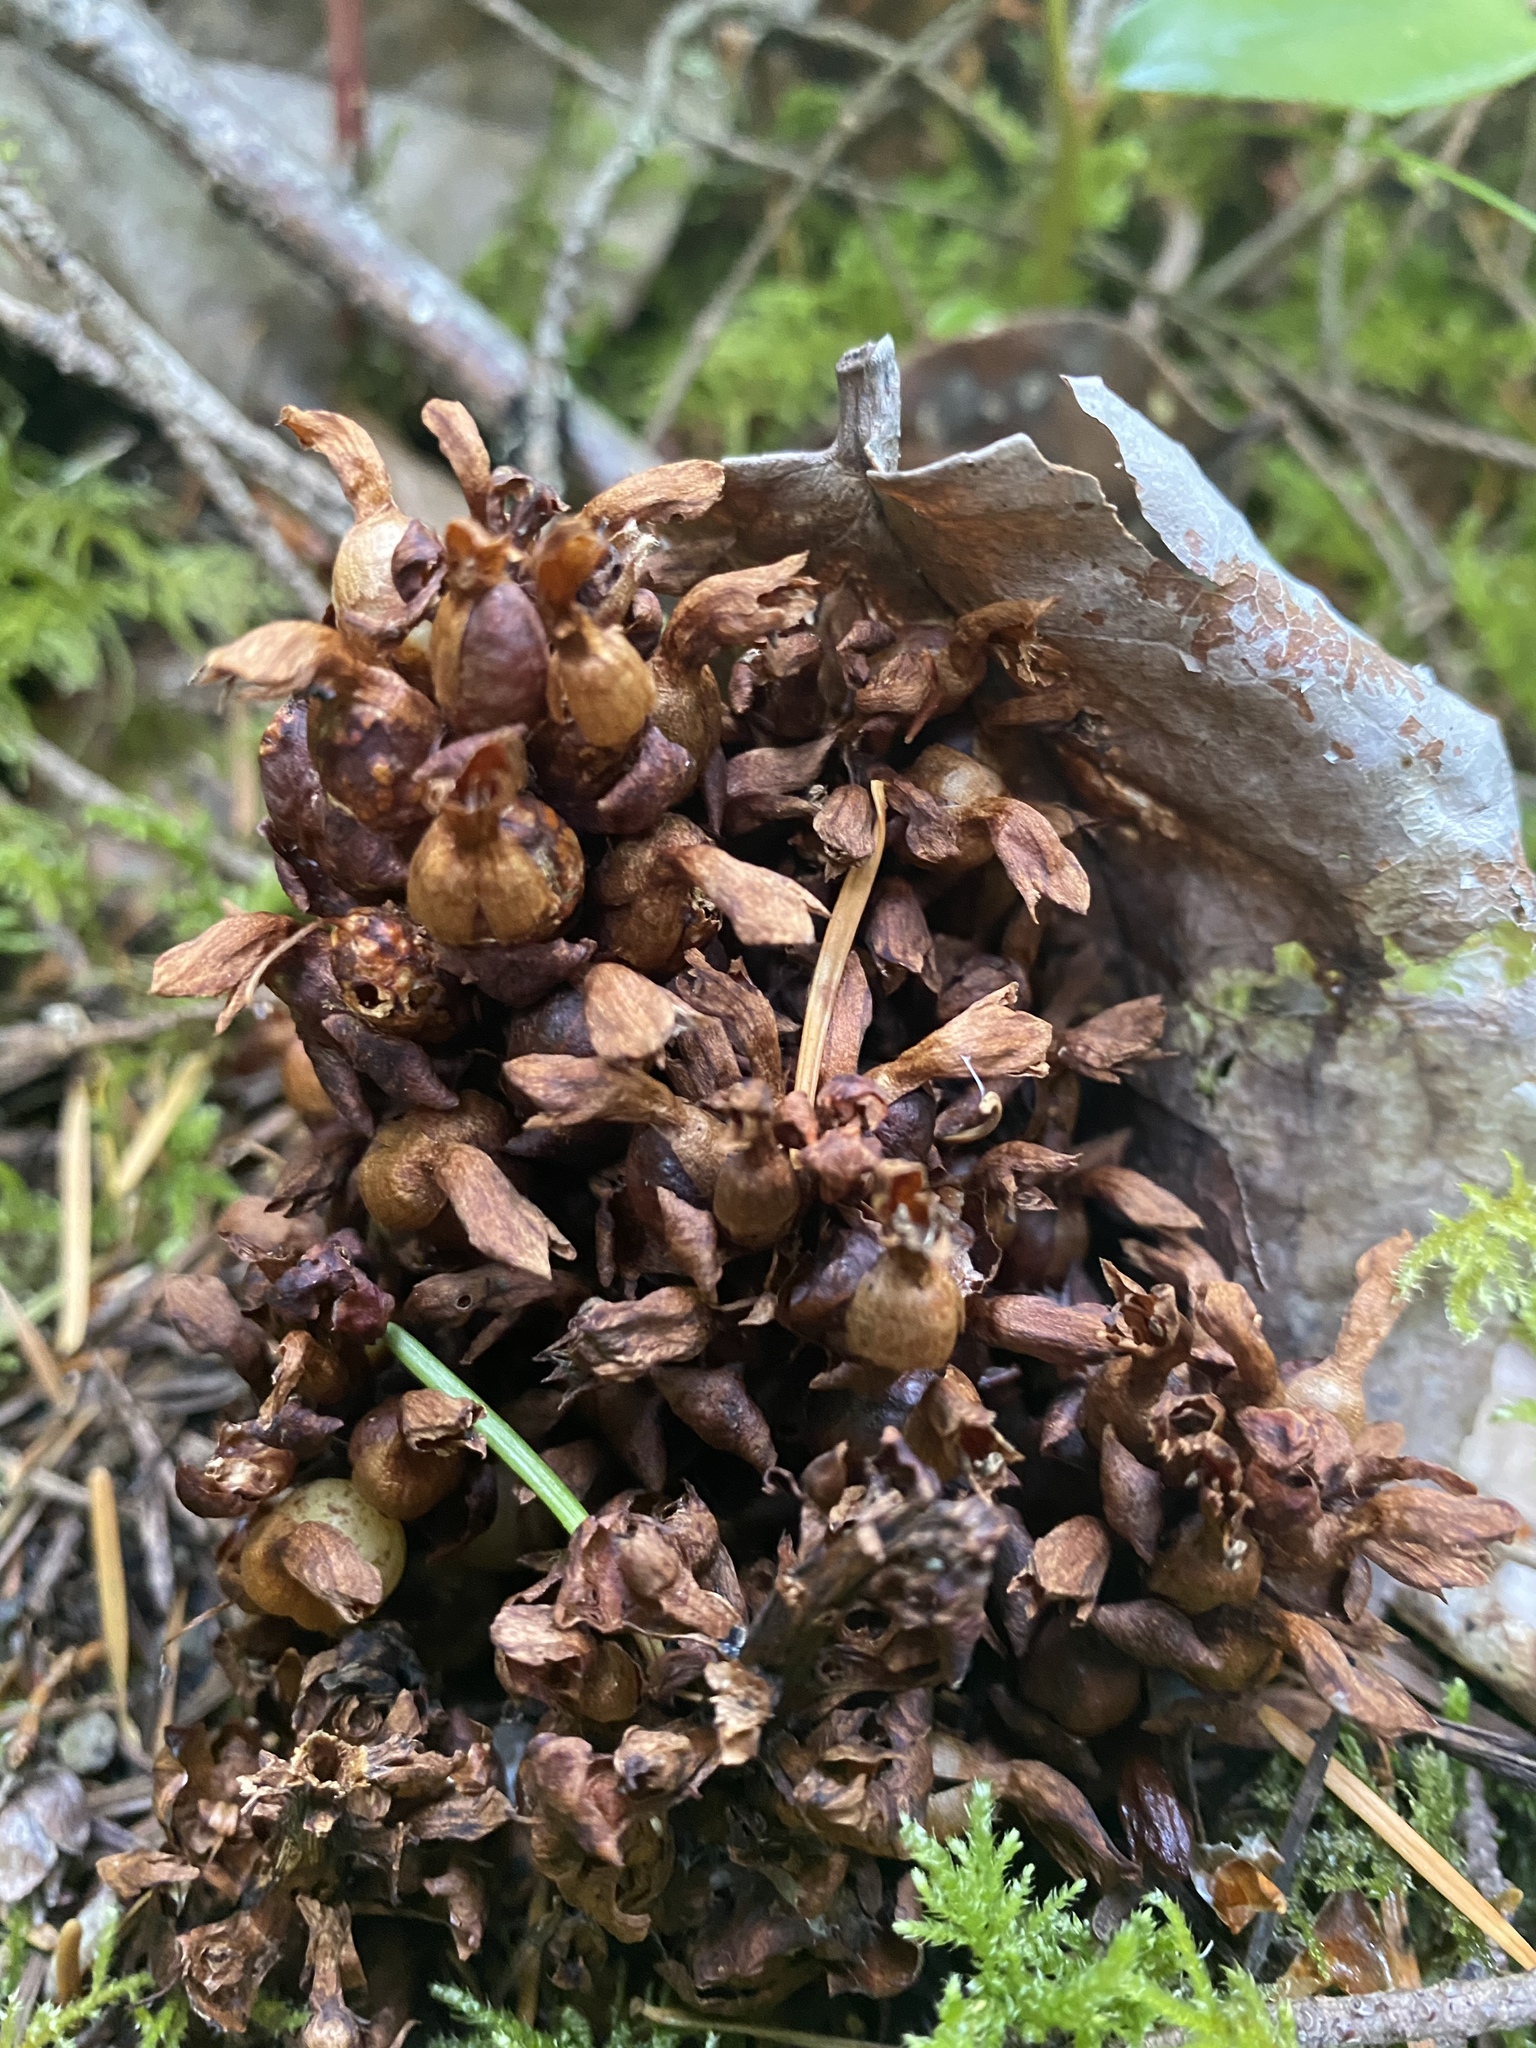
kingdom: Plantae
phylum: Tracheophyta
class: Magnoliopsida
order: Lamiales
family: Orobanchaceae
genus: Kopsiopsis
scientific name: Kopsiopsis hookeri
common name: Hooker's groundcone
